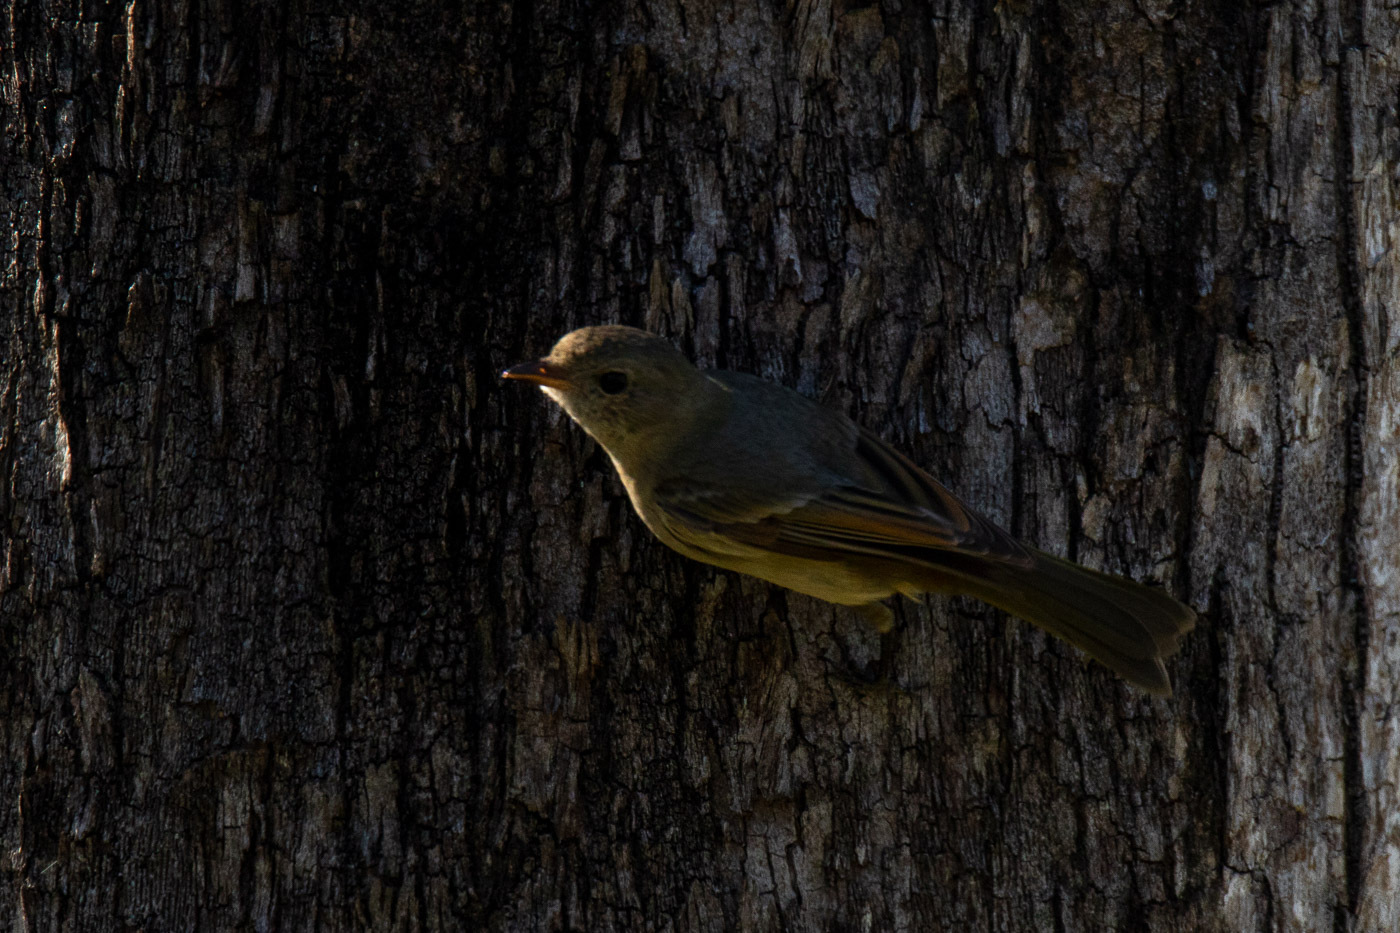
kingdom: Animalia
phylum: Chordata
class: Aves
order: Passeriformes
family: Pachycephalidae
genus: Pachycephala
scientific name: Pachycephala pectoralis
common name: Australian golden whistler
